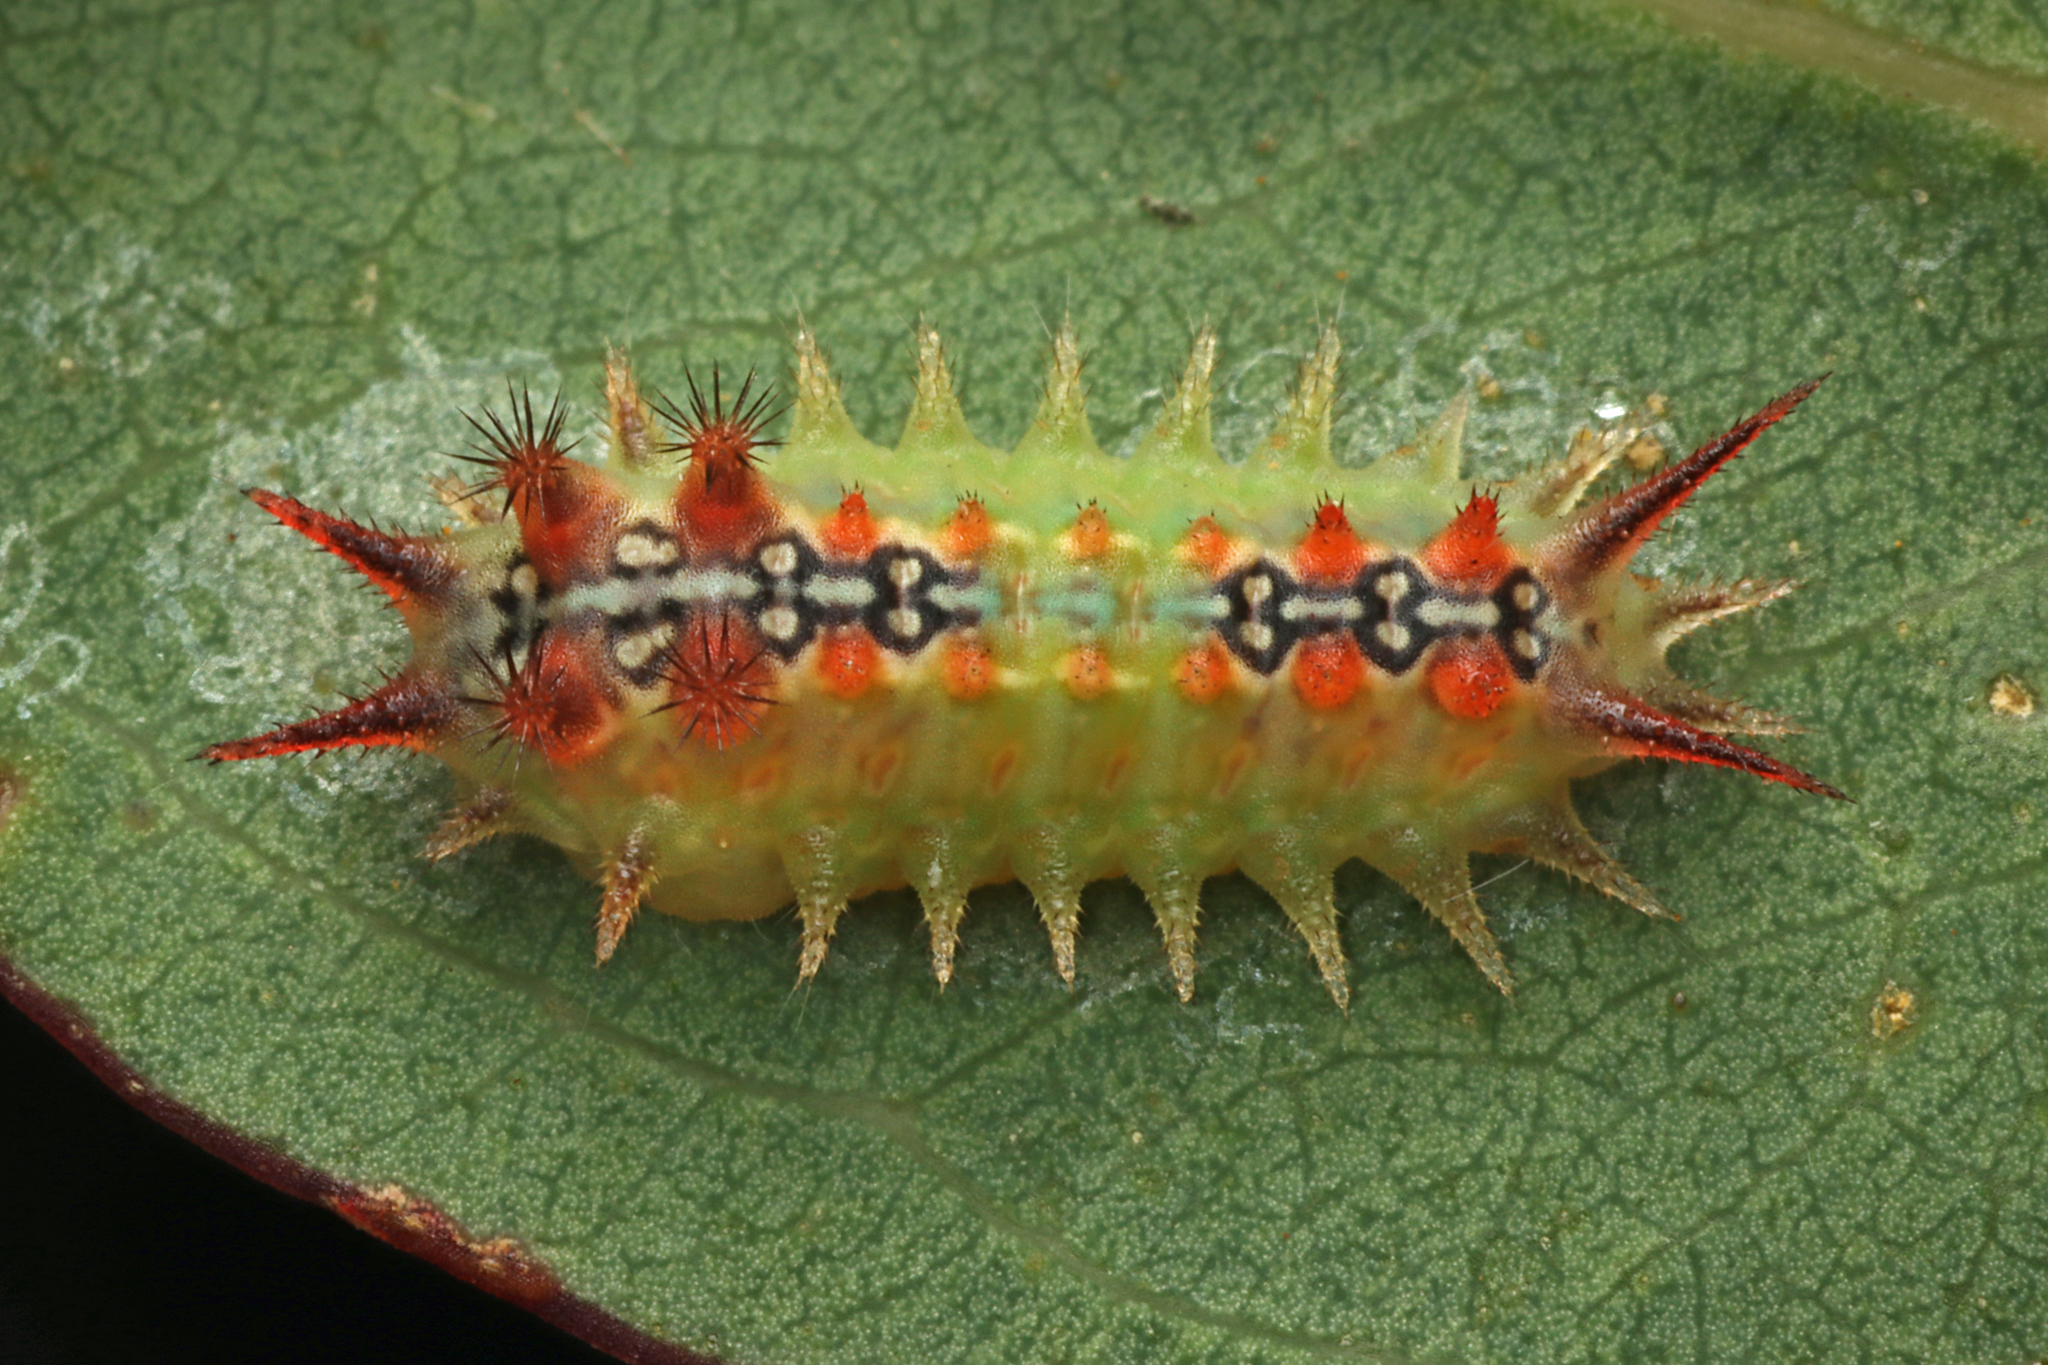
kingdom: Animalia
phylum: Arthropoda
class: Insecta
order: Lepidoptera
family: Limacodidae
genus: Doratifera
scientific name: Doratifera quadriguttata
